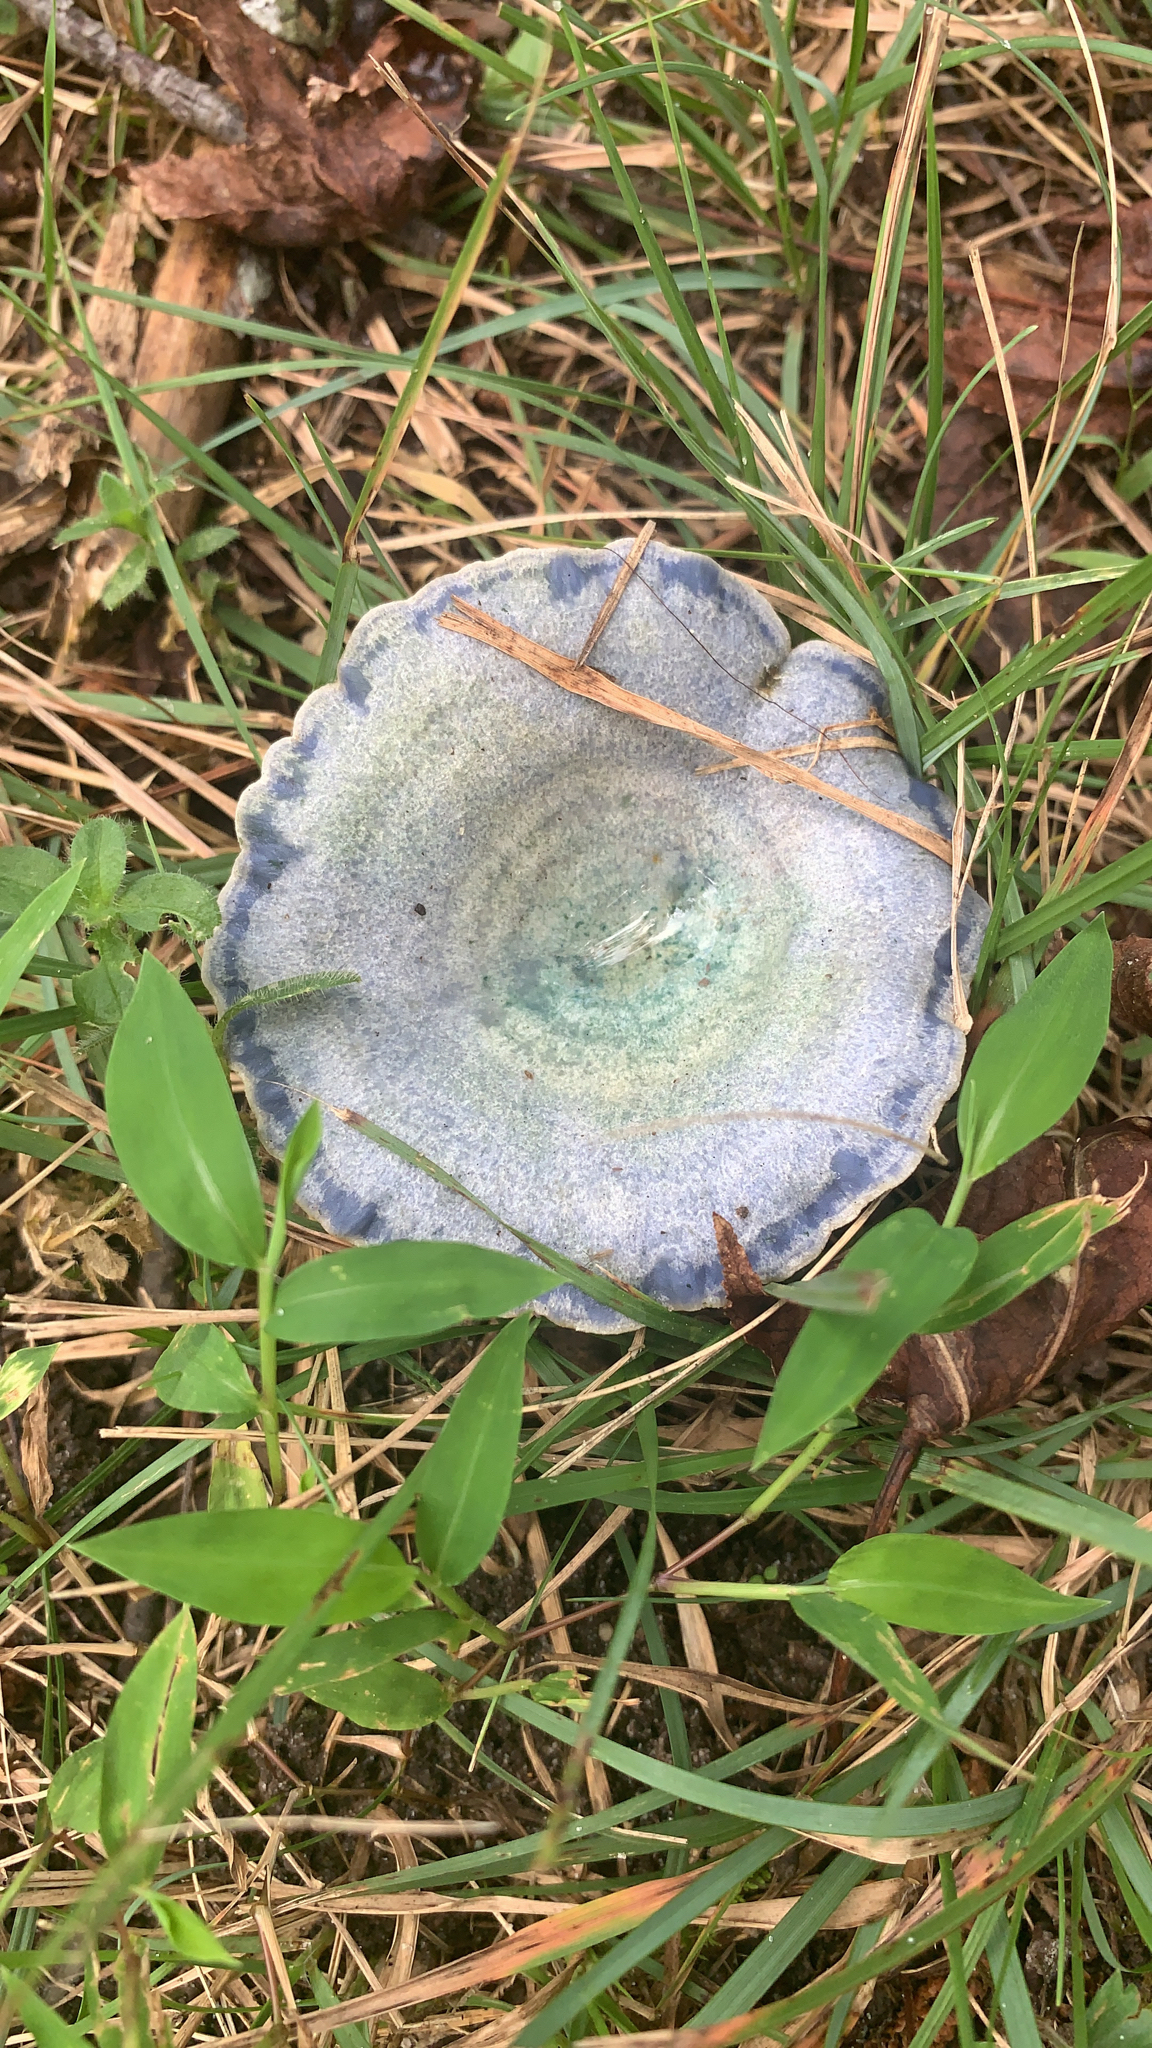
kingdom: Fungi
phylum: Basidiomycota
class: Agaricomycetes
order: Russulales
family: Russulaceae
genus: Lactarius
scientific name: Lactarius indigo
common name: Indigo milk cap
